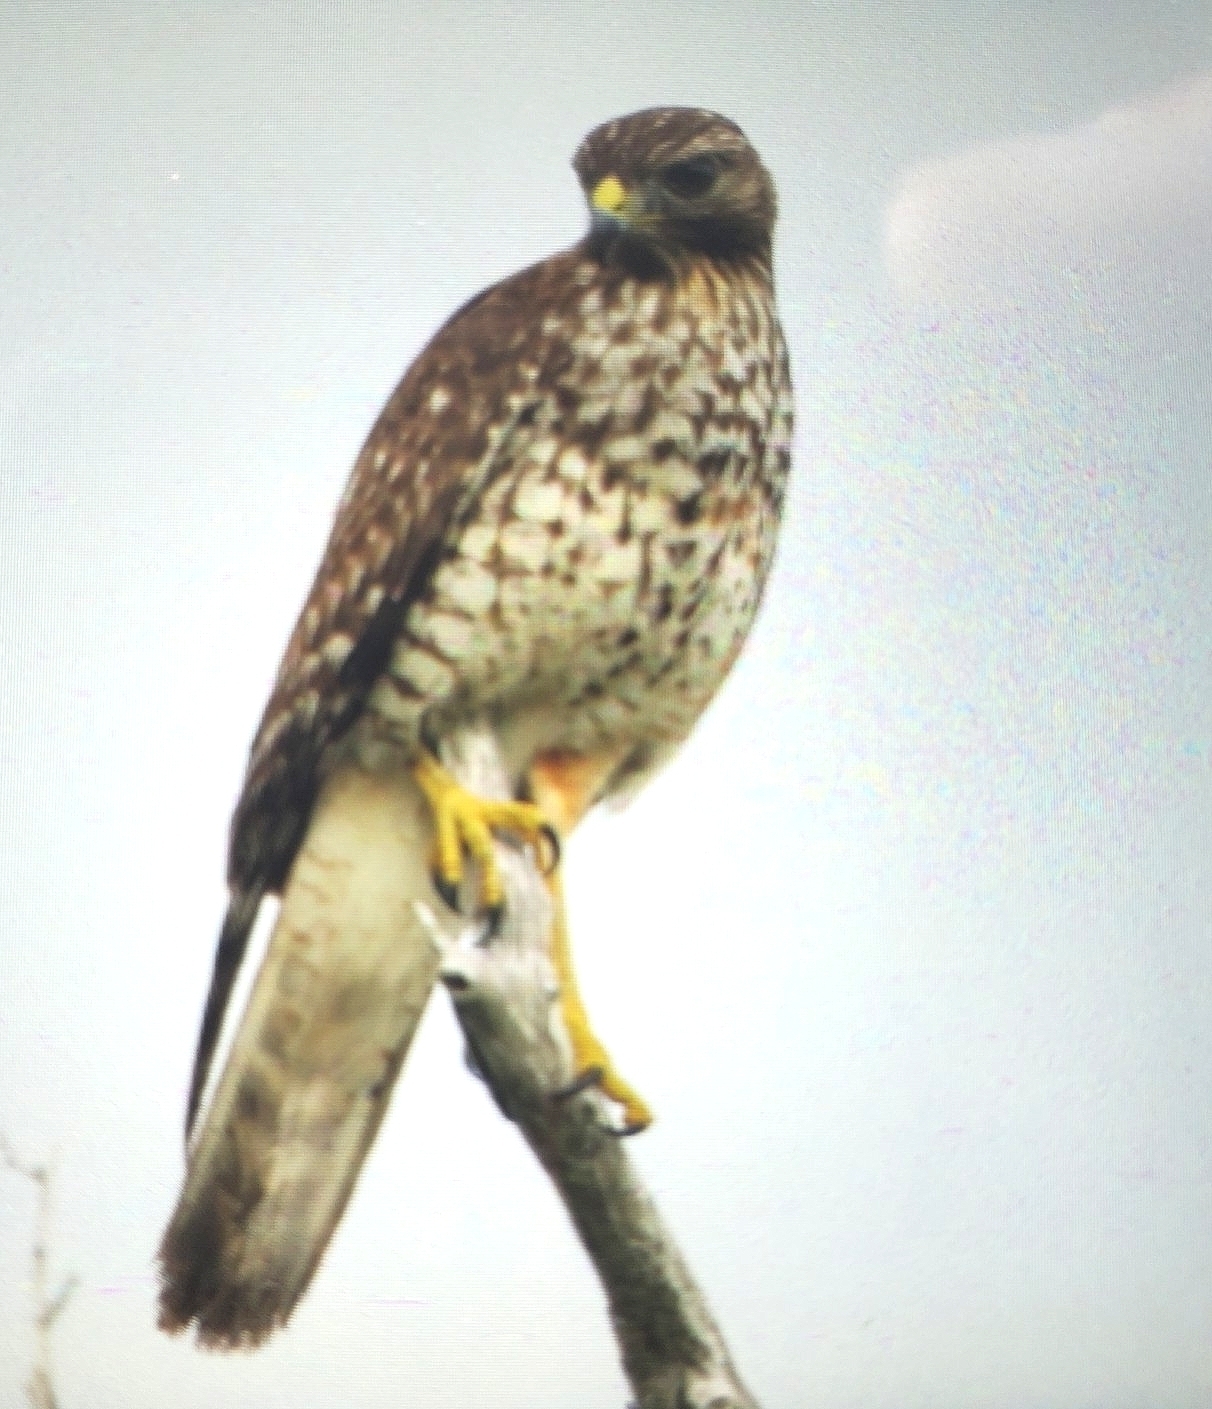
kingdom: Animalia
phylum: Chordata
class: Aves
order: Accipitriformes
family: Accipitridae
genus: Buteo
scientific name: Buteo lineatus
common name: Red-shouldered hawk
